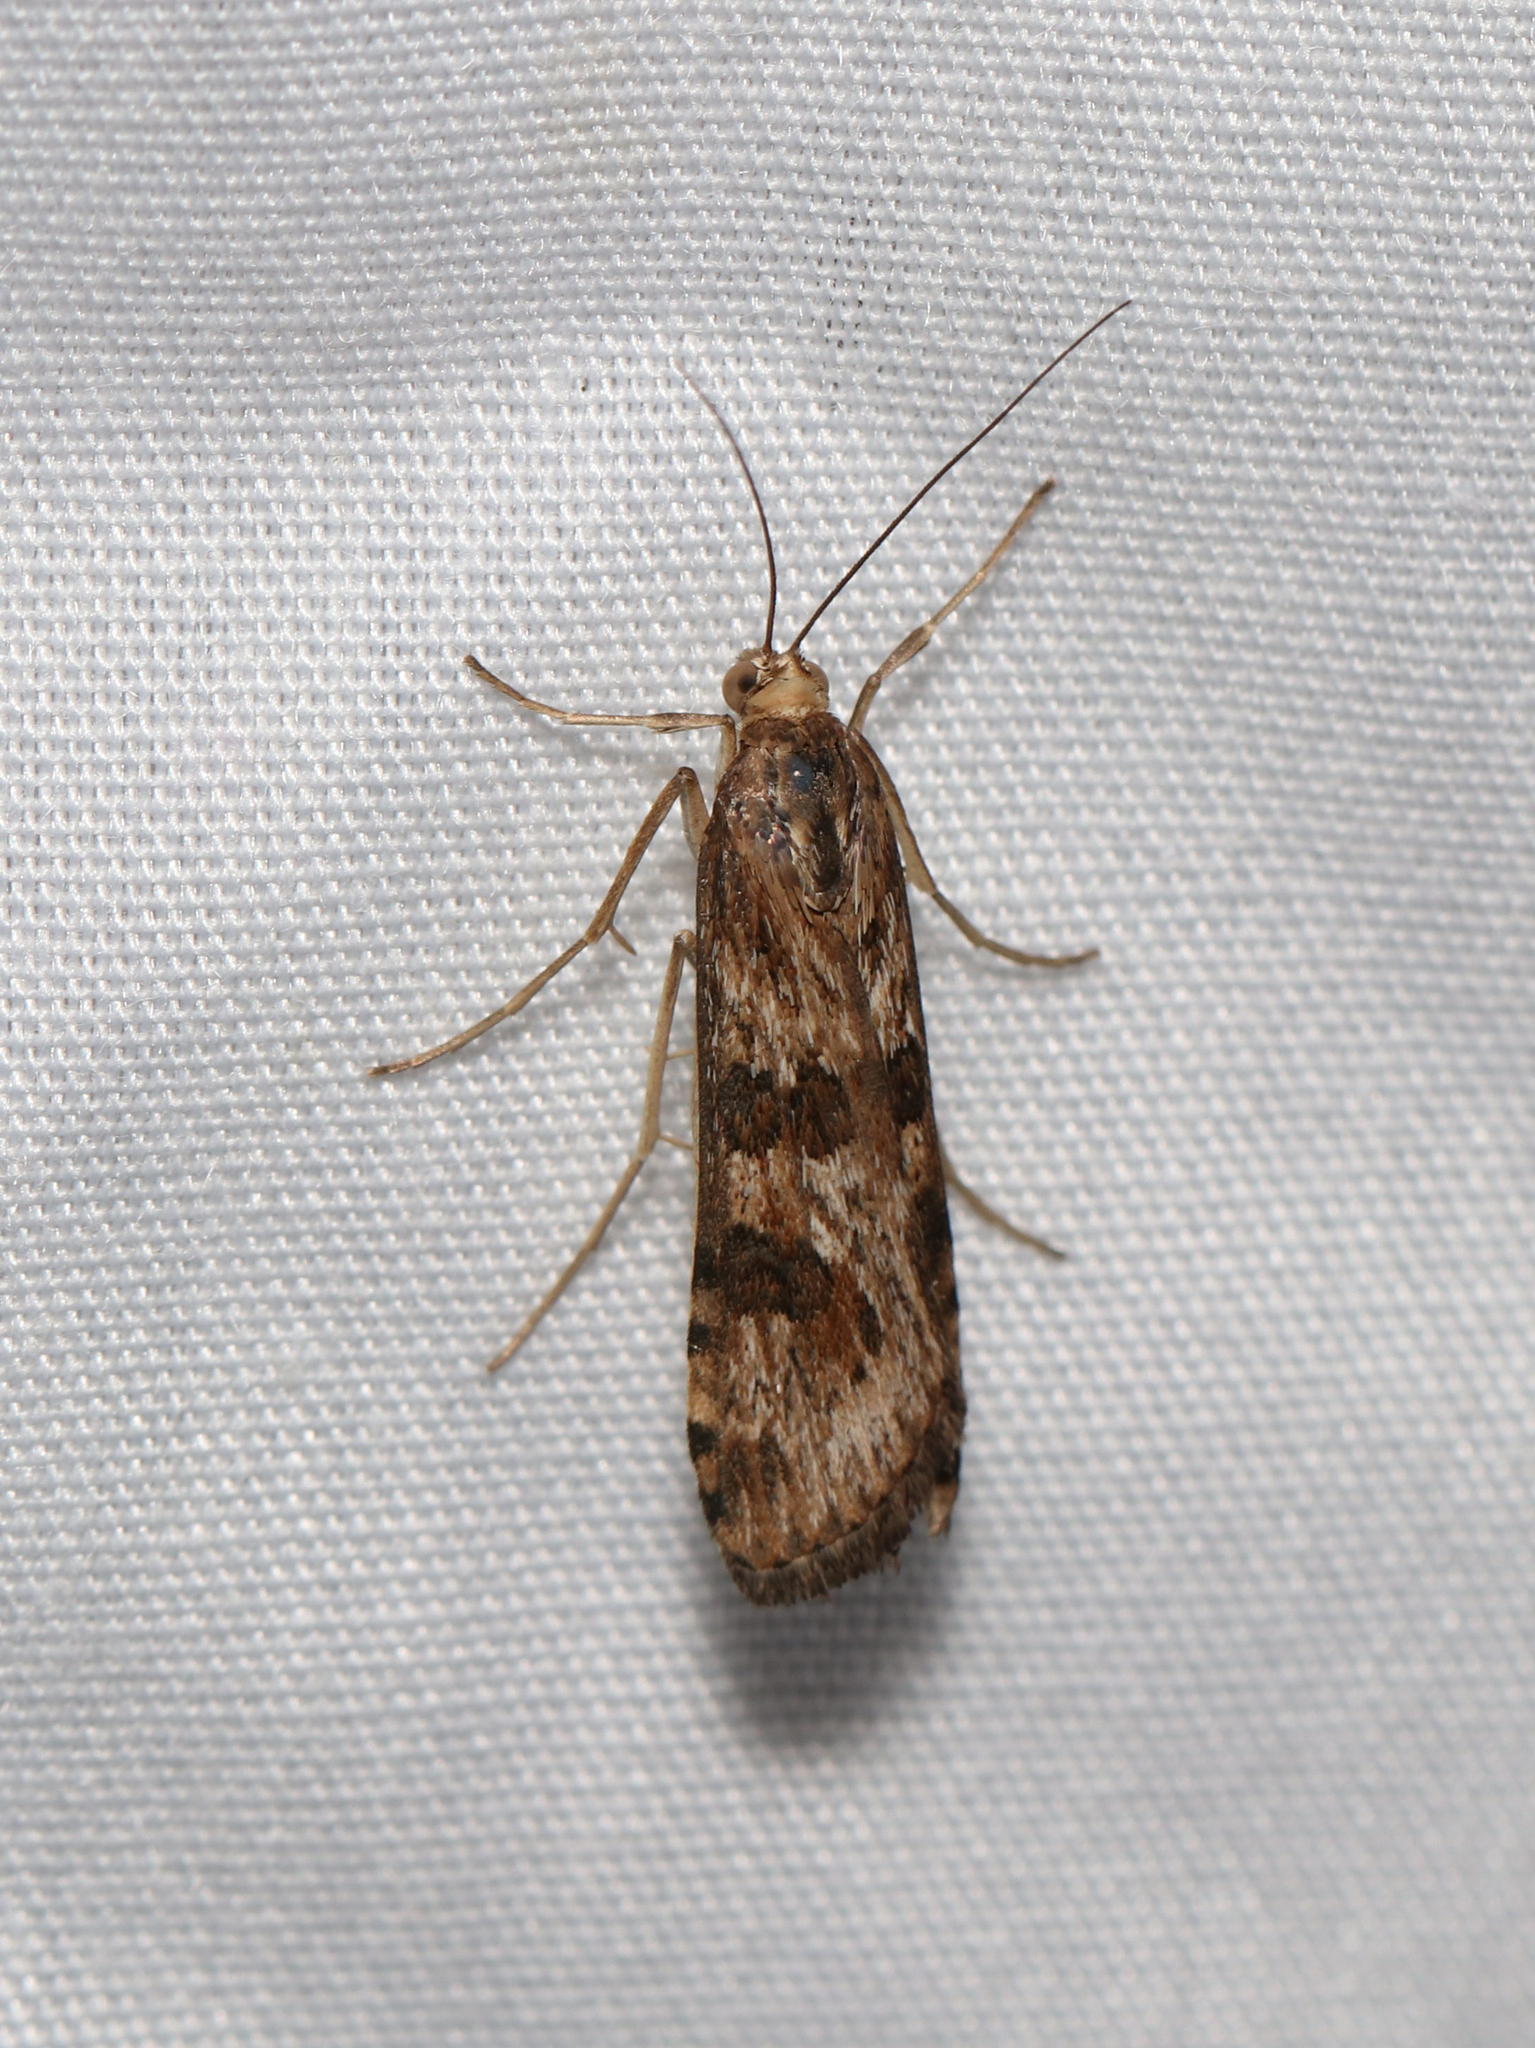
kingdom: Animalia
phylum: Arthropoda
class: Insecta
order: Lepidoptera
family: Crambidae
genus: Nomophila
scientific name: Nomophila nearctica
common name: American rush veneer
